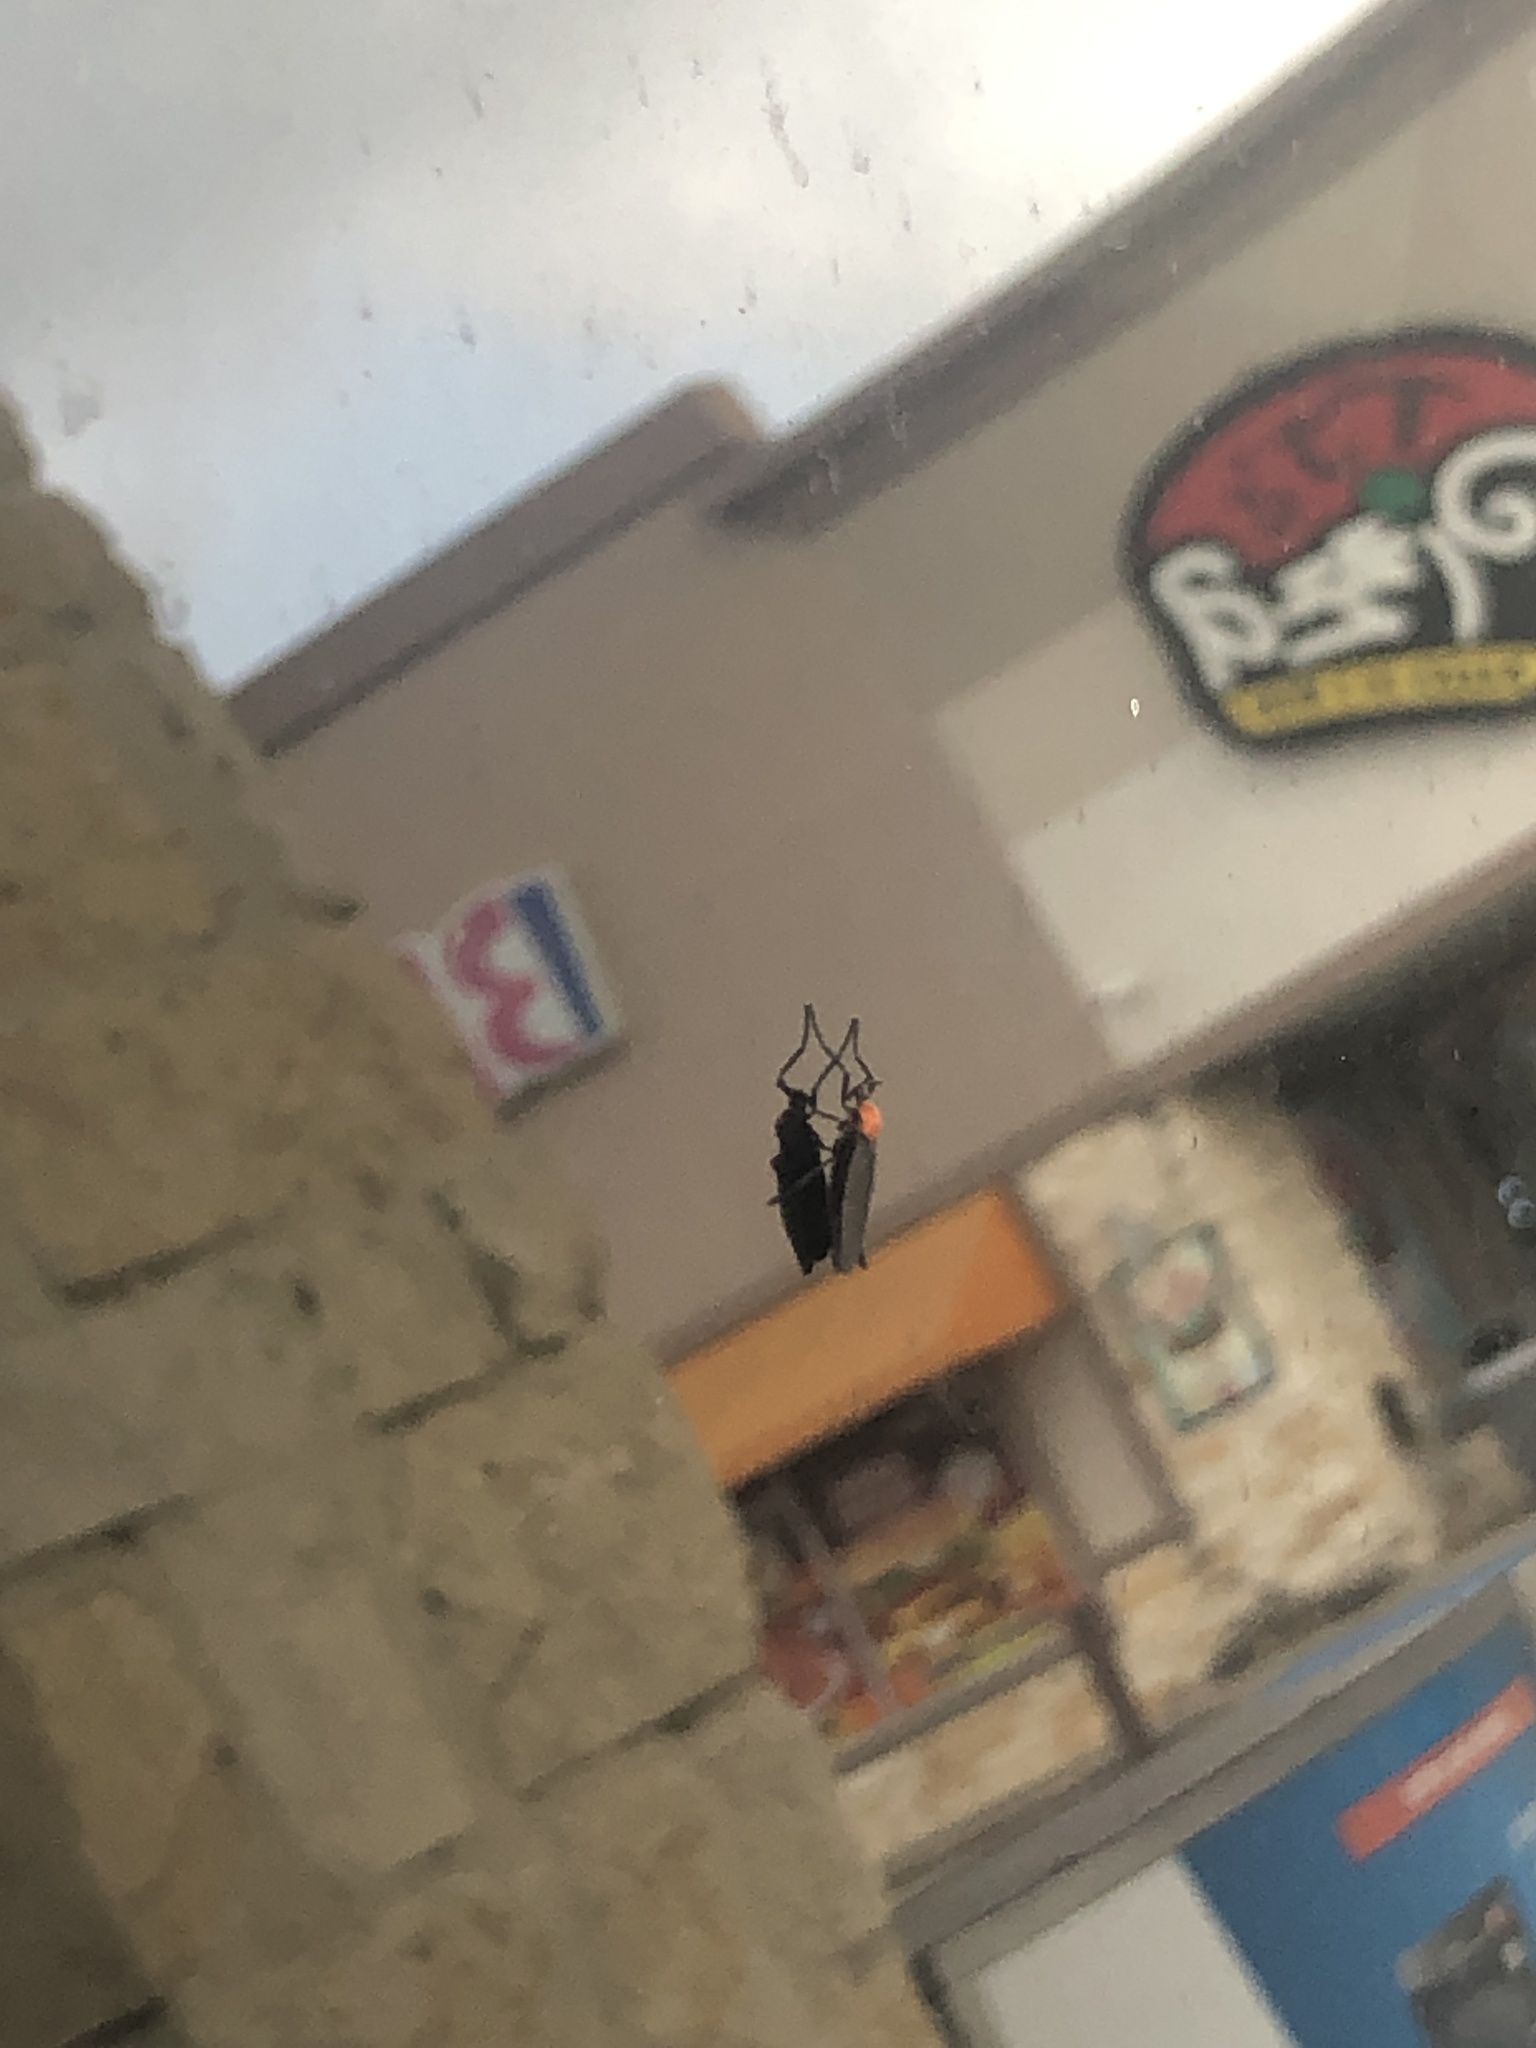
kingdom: Animalia
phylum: Arthropoda
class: Insecta
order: Diptera
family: Bibionidae
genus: Plecia
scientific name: Plecia nearctica
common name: March fly
